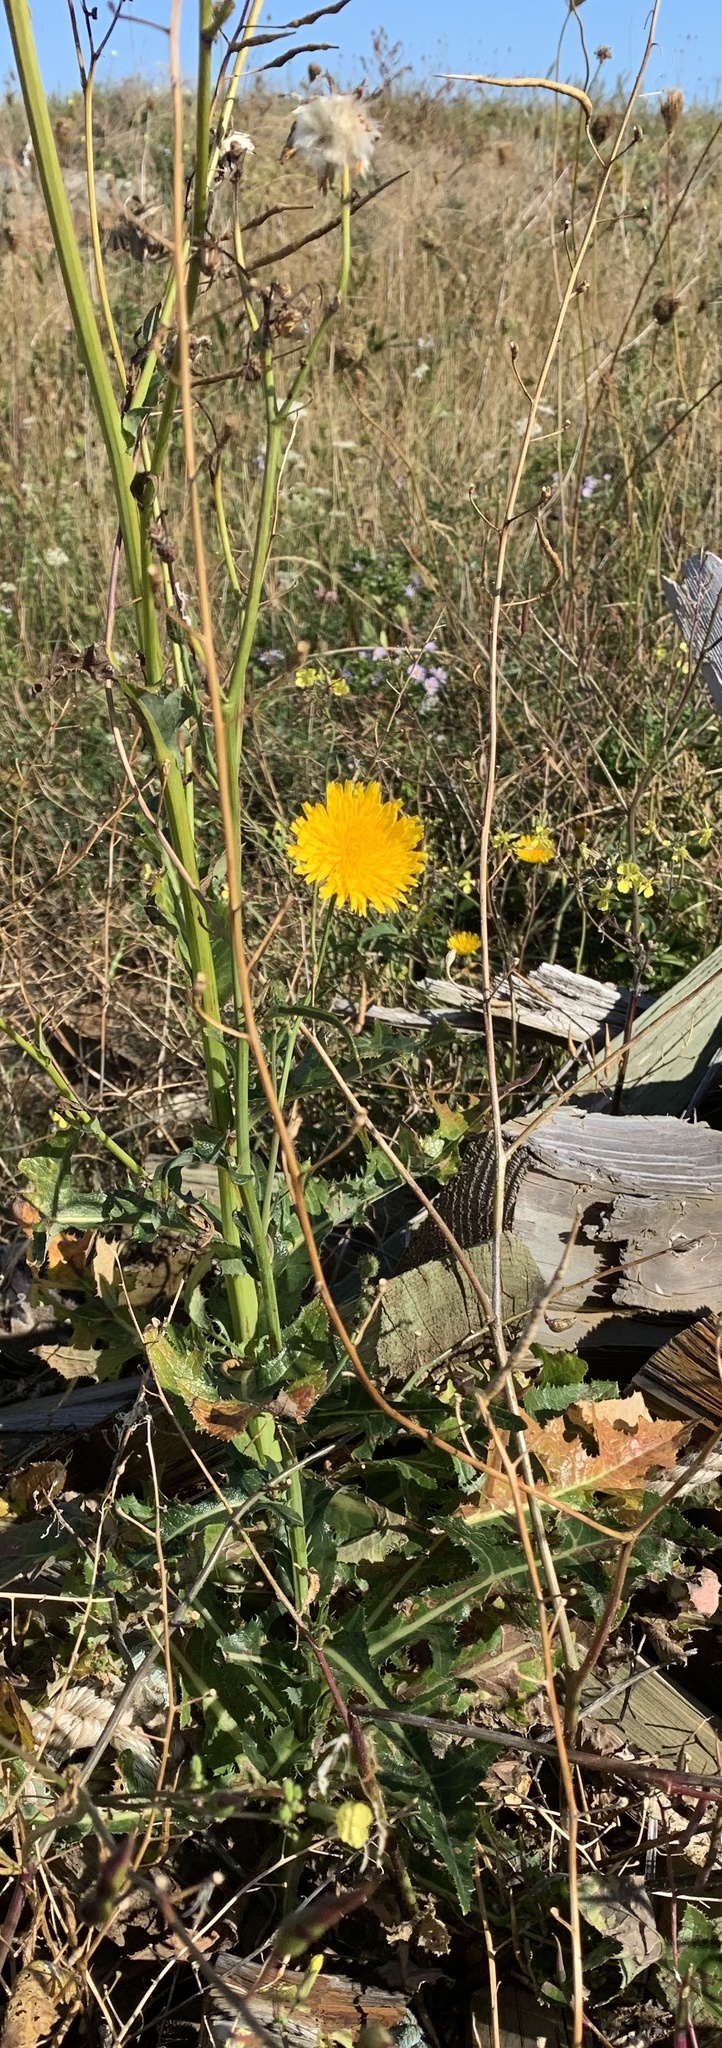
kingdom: Plantae
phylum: Tracheophyta
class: Magnoliopsida
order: Asterales
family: Asteraceae
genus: Sonchus
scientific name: Sonchus arvensis
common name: Perennial sow-thistle
